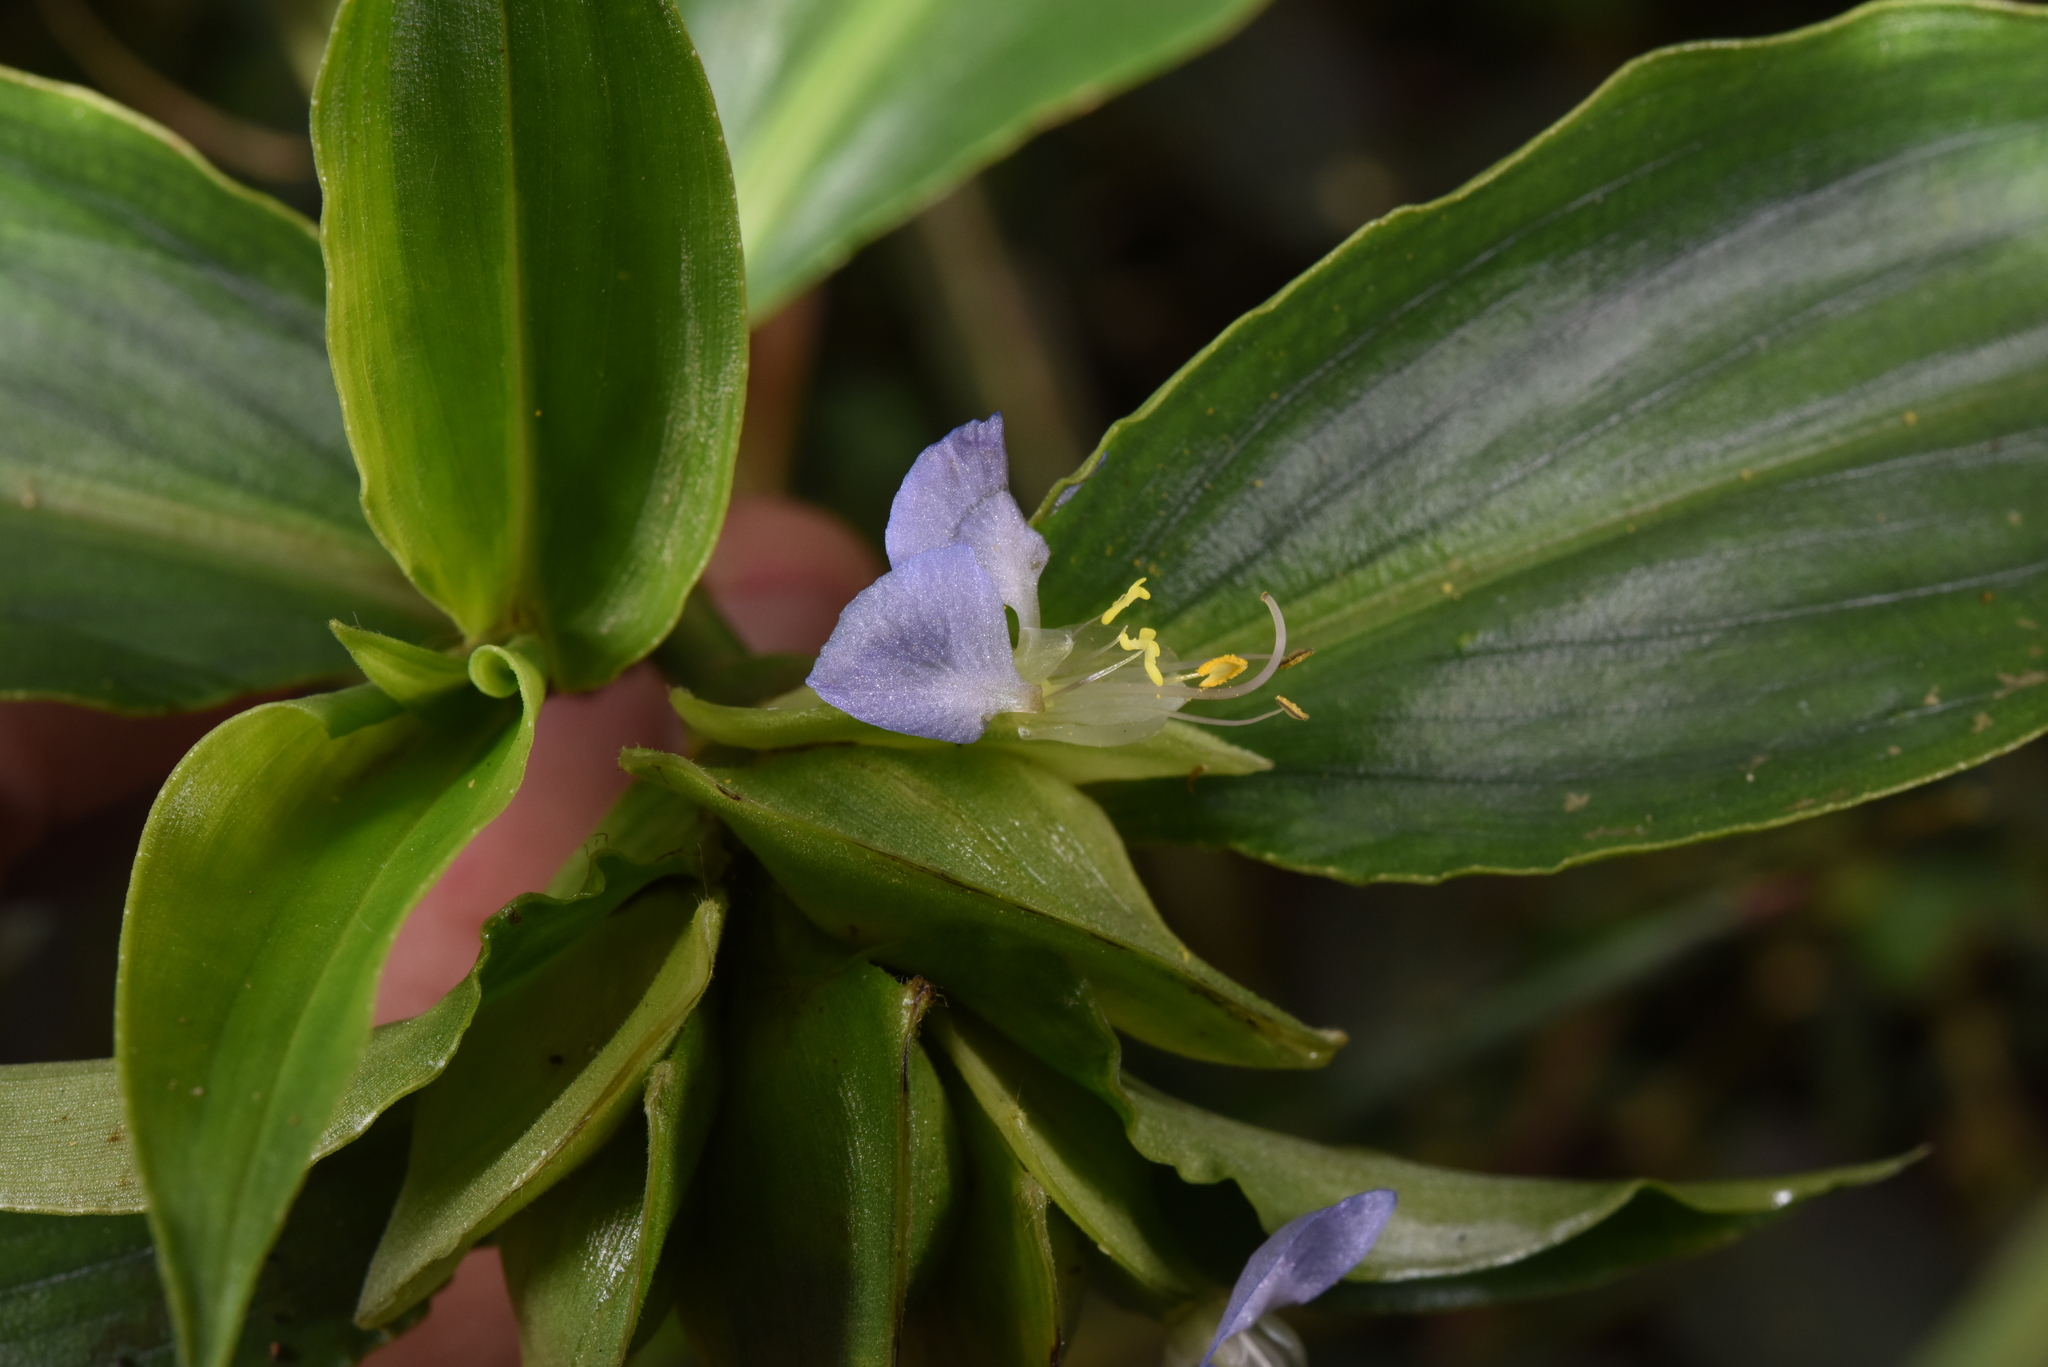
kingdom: Plantae
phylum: Tracheophyta
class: Liliopsida
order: Commelinales
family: Commelinaceae
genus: Commelina
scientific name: Commelina paludosa
